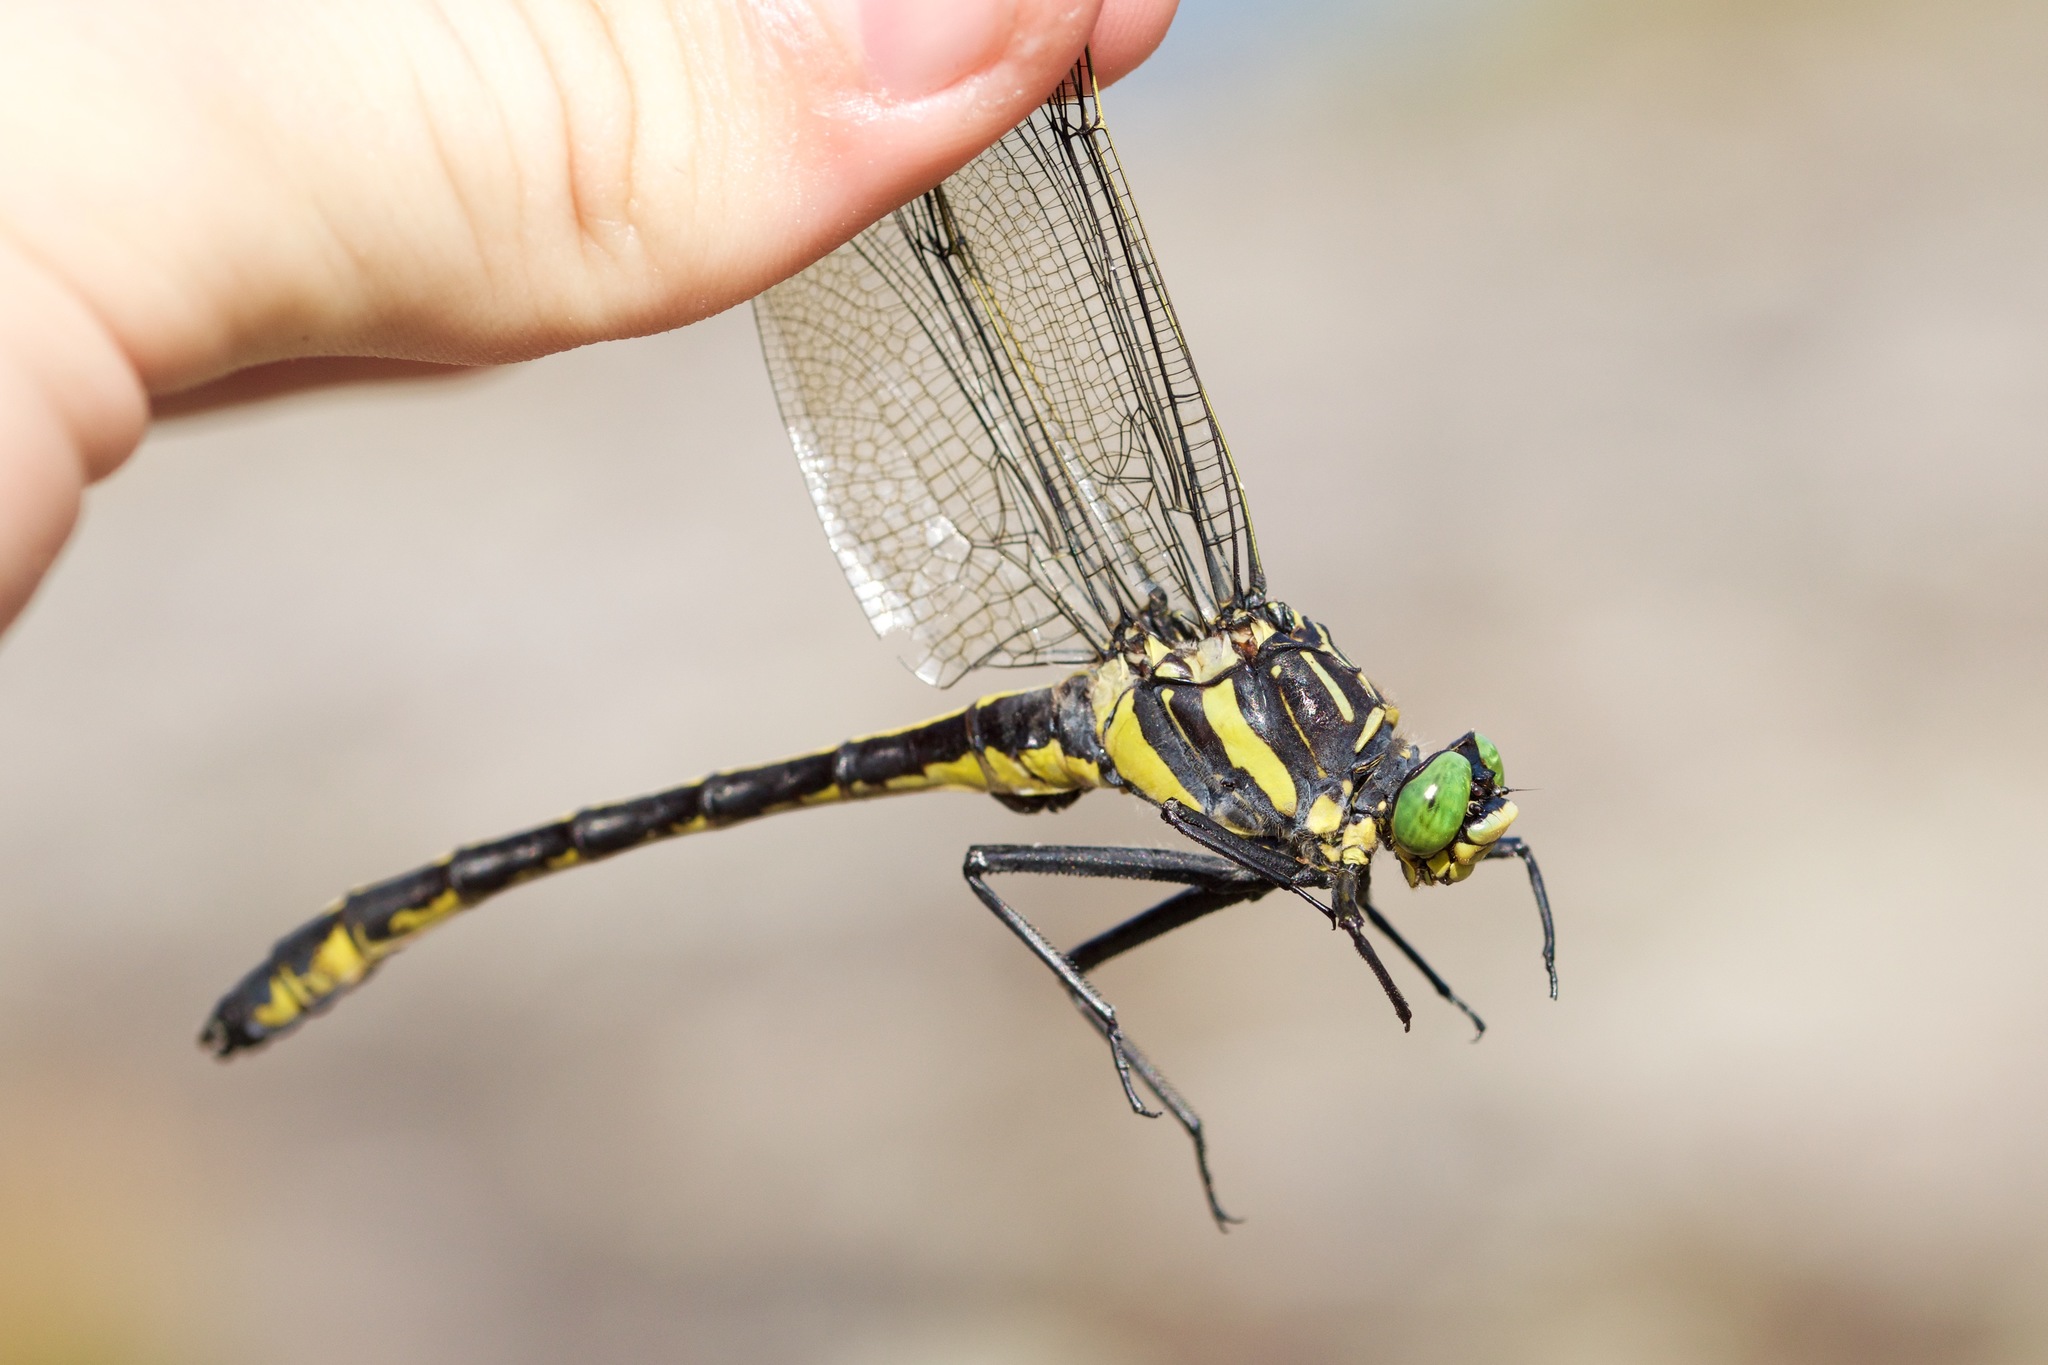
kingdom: Animalia
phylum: Arthropoda
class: Insecta
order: Odonata
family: Gomphidae
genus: Hagenius
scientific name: Hagenius brevistylus
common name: Dragonhunter
